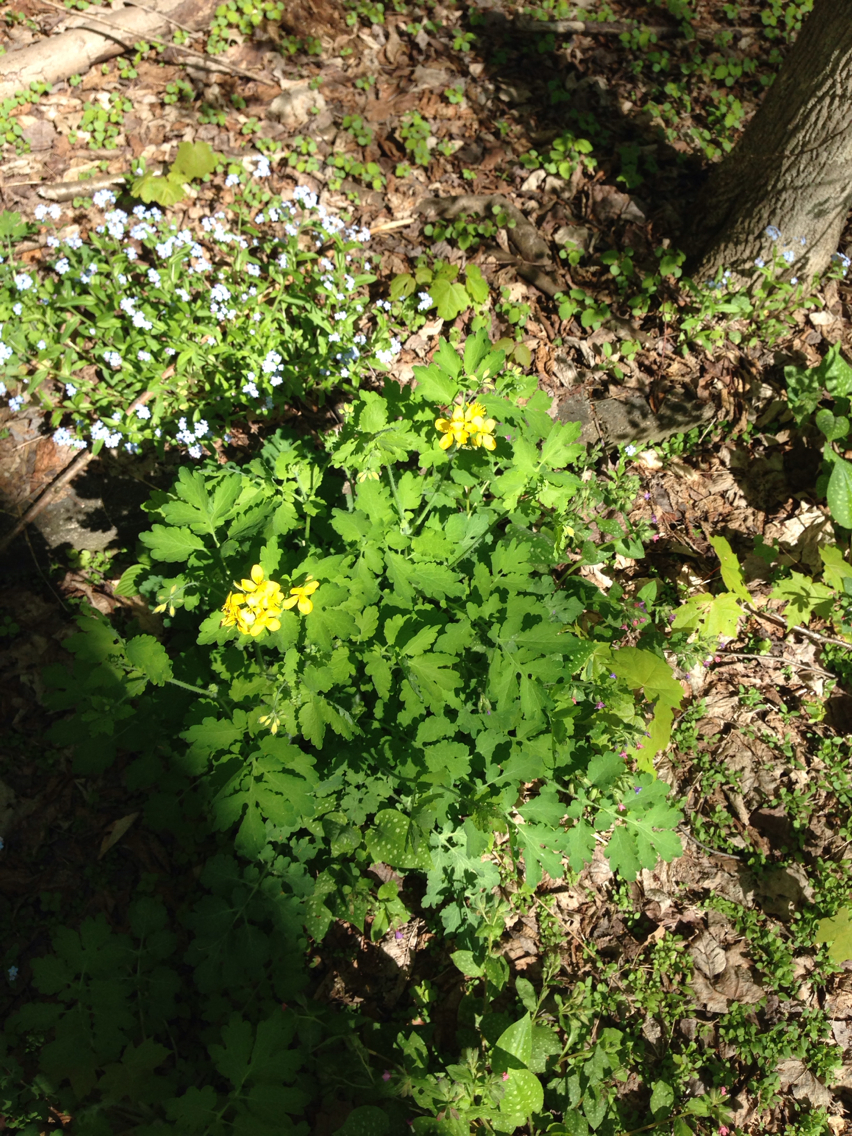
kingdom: Plantae
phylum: Tracheophyta
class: Magnoliopsida
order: Ranunculales
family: Papaveraceae
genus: Chelidonium
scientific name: Chelidonium majus
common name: Greater celandine
